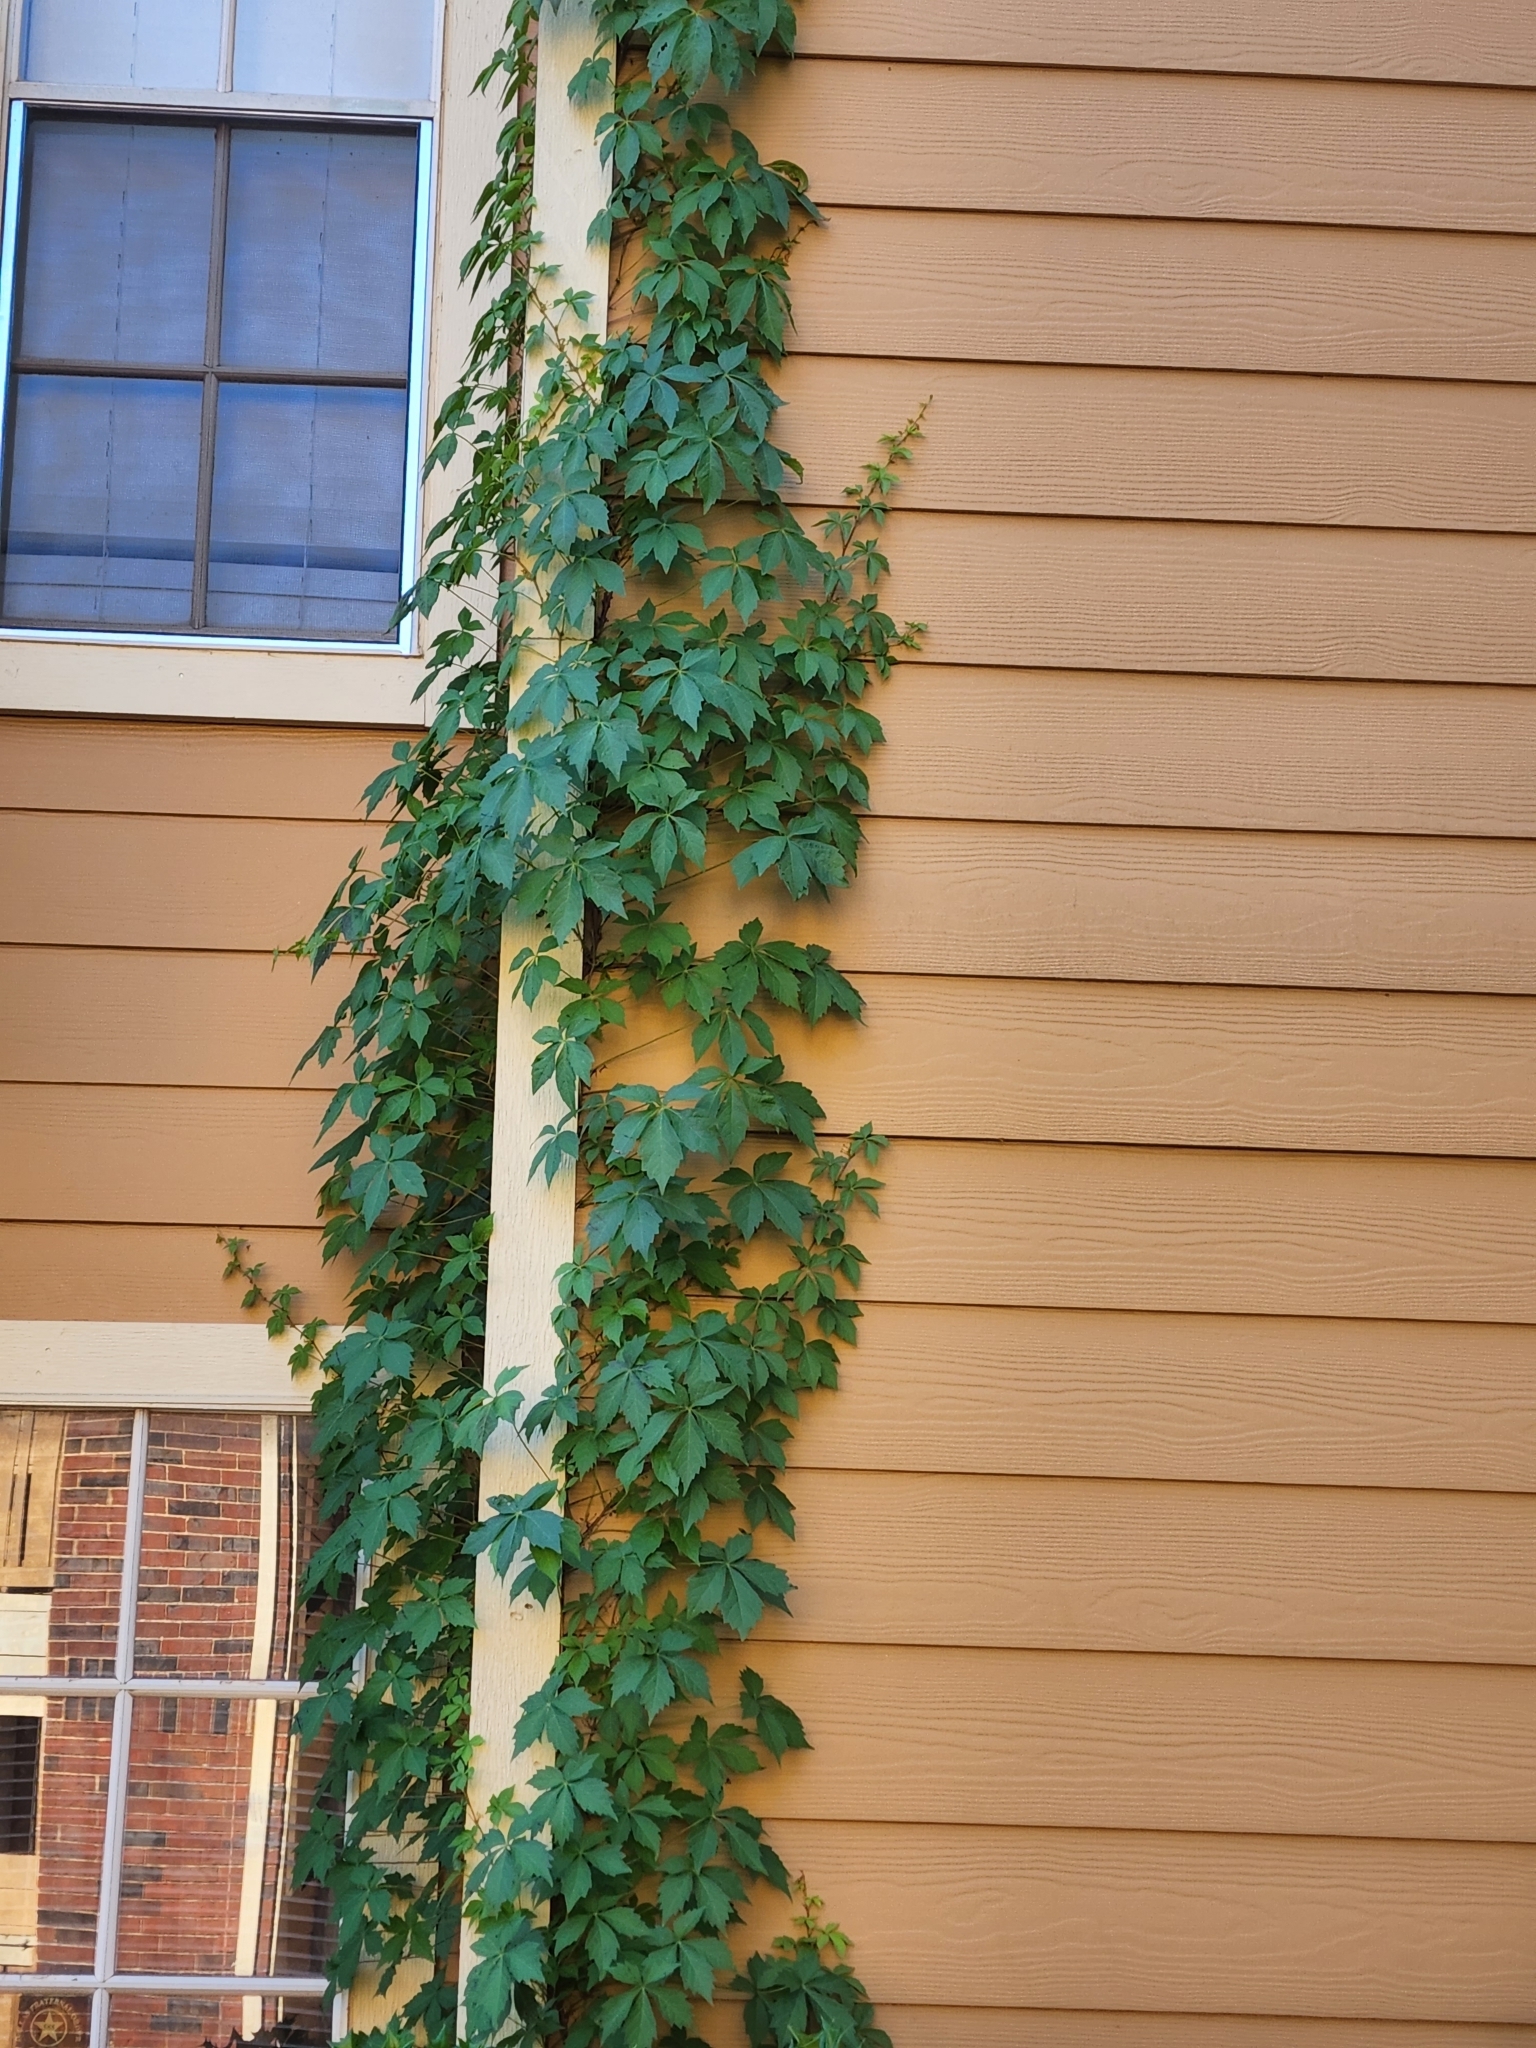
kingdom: Plantae
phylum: Tracheophyta
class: Magnoliopsida
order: Vitales
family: Vitaceae
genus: Parthenocissus
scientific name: Parthenocissus quinquefolia
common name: Virginia-creeper
